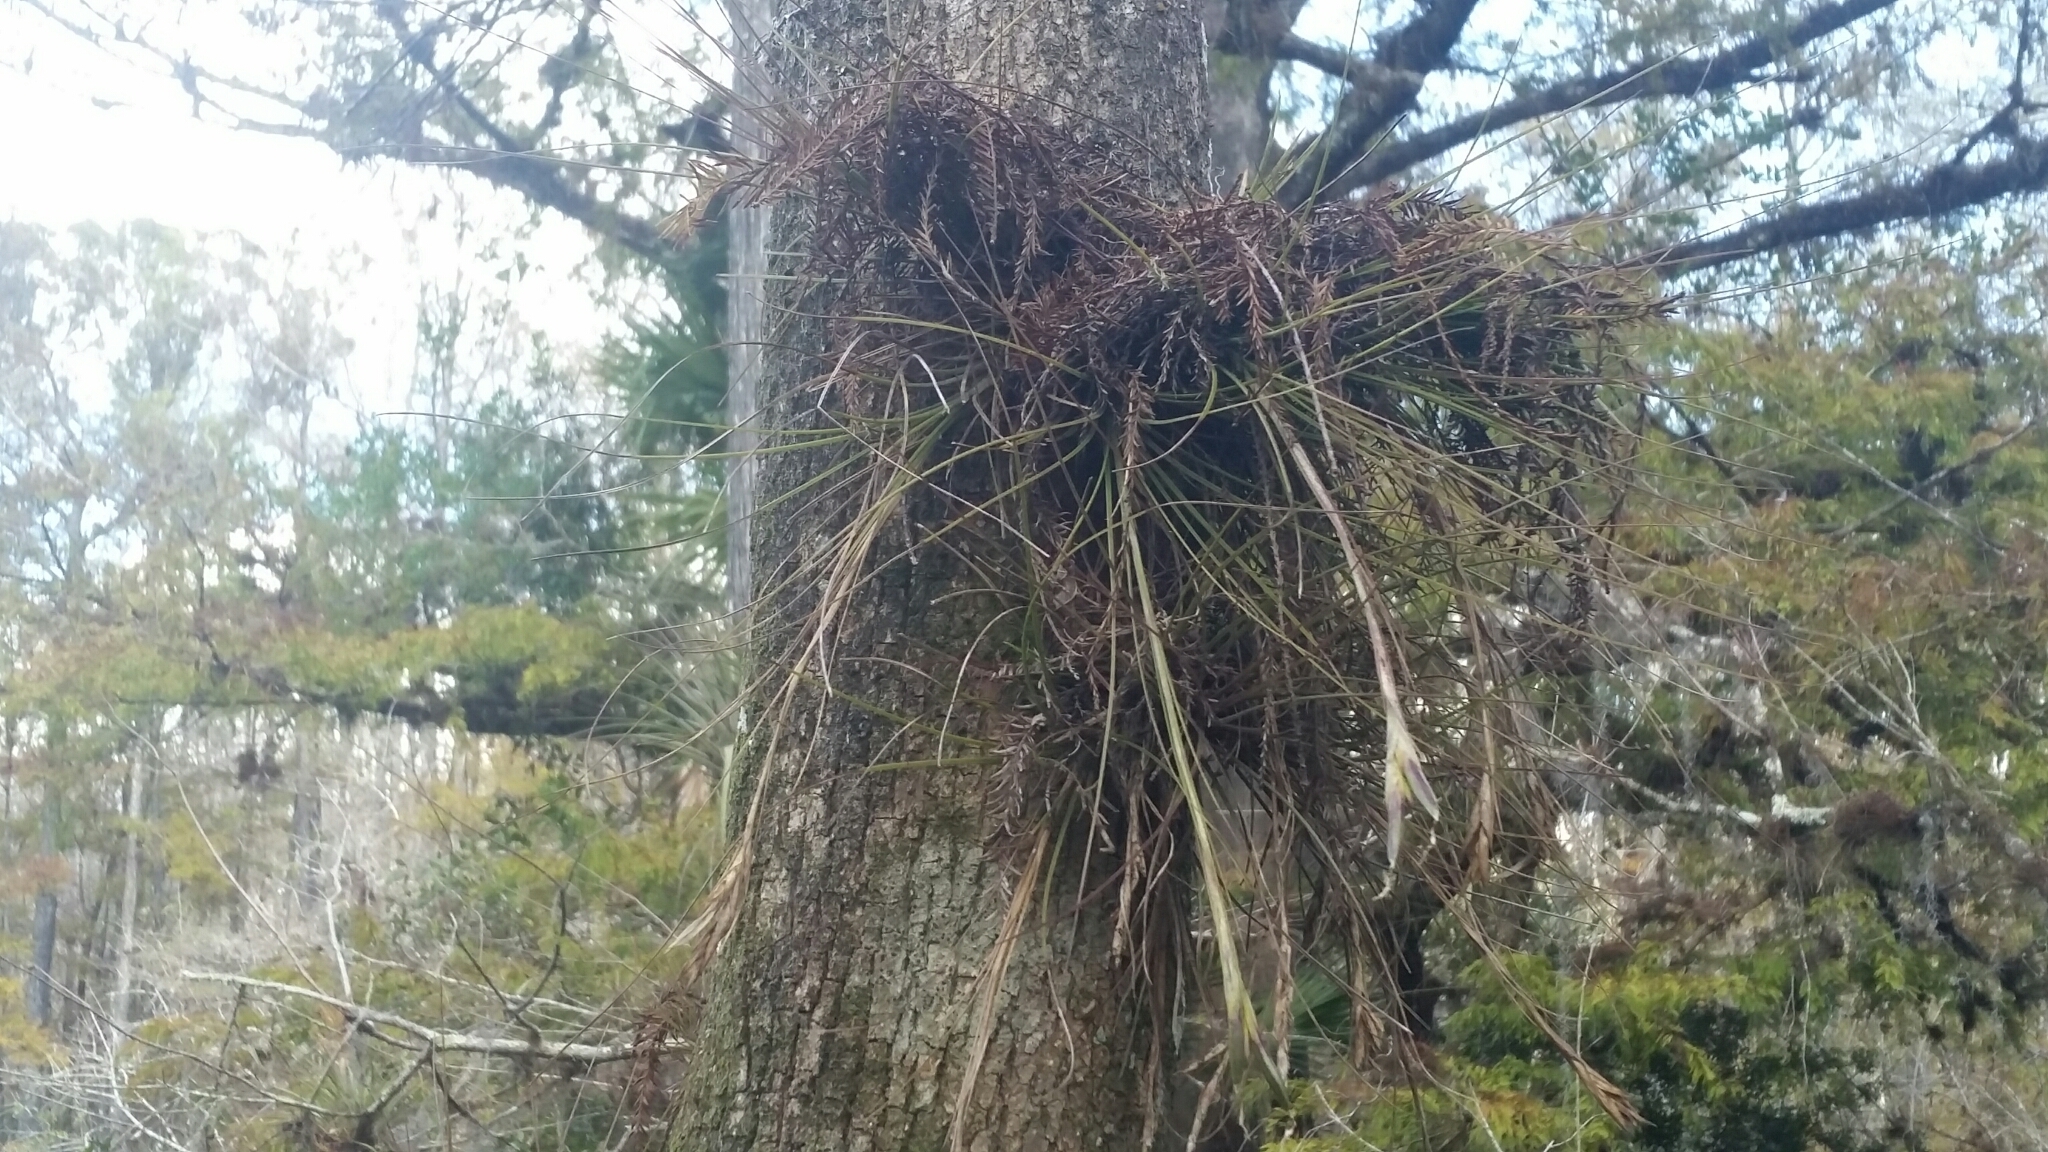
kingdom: Plantae
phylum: Tracheophyta
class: Liliopsida
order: Poales
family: Bromeliaceae
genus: Tillandsia
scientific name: Tillandsia setacea
